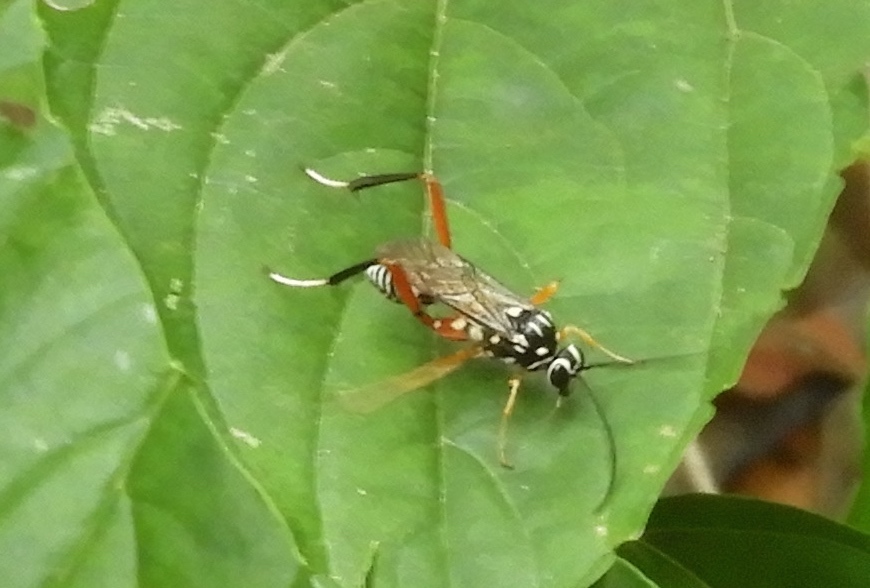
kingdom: Animalia
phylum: Arthropoda
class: Insecta
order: Hymenoptera
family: Ichneumonidae
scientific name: Ichneumonidae
